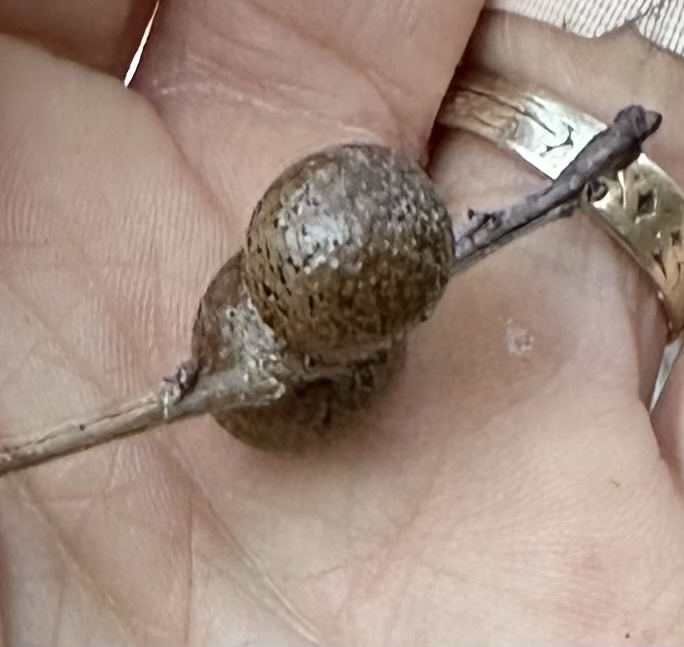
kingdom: Animalia
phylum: Arthropoda
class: Insecta
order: Hymenoptera
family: Cynipidae
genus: Disholcaspis
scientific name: Disholcaspis quercusglobulus
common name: Round bullet gall wasp
